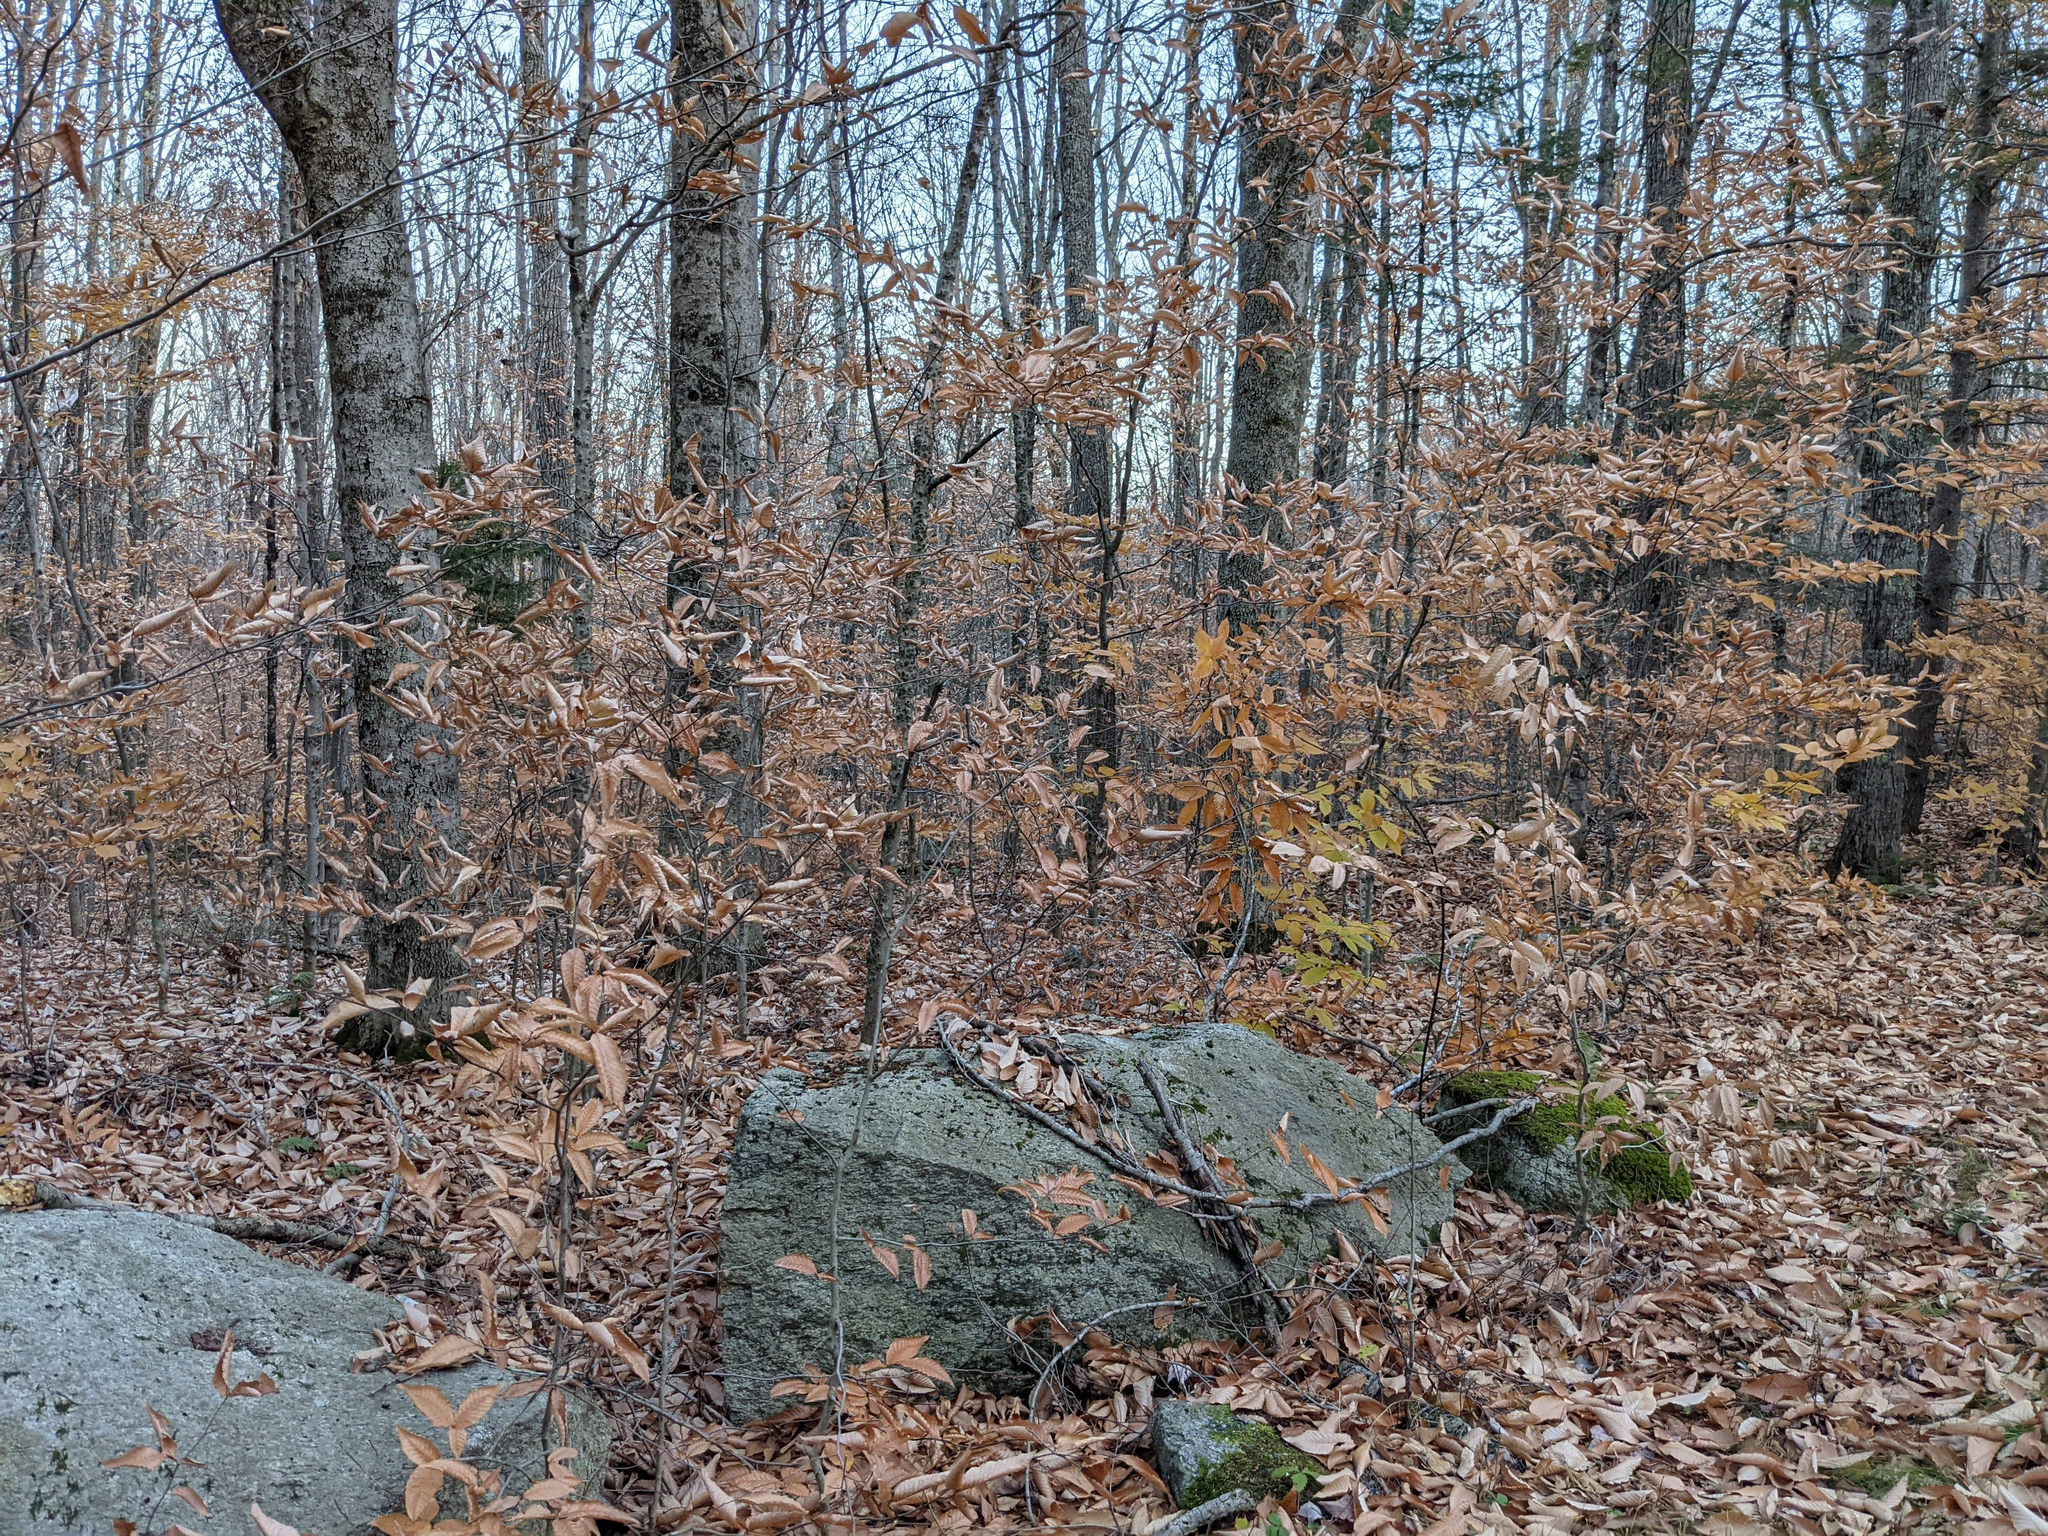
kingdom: Plantae
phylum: Tracheophyta
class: Magnoliopsida
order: Fagales
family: Fagaceae
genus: Fagus
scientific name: Fagus grandifolia
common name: American beech
